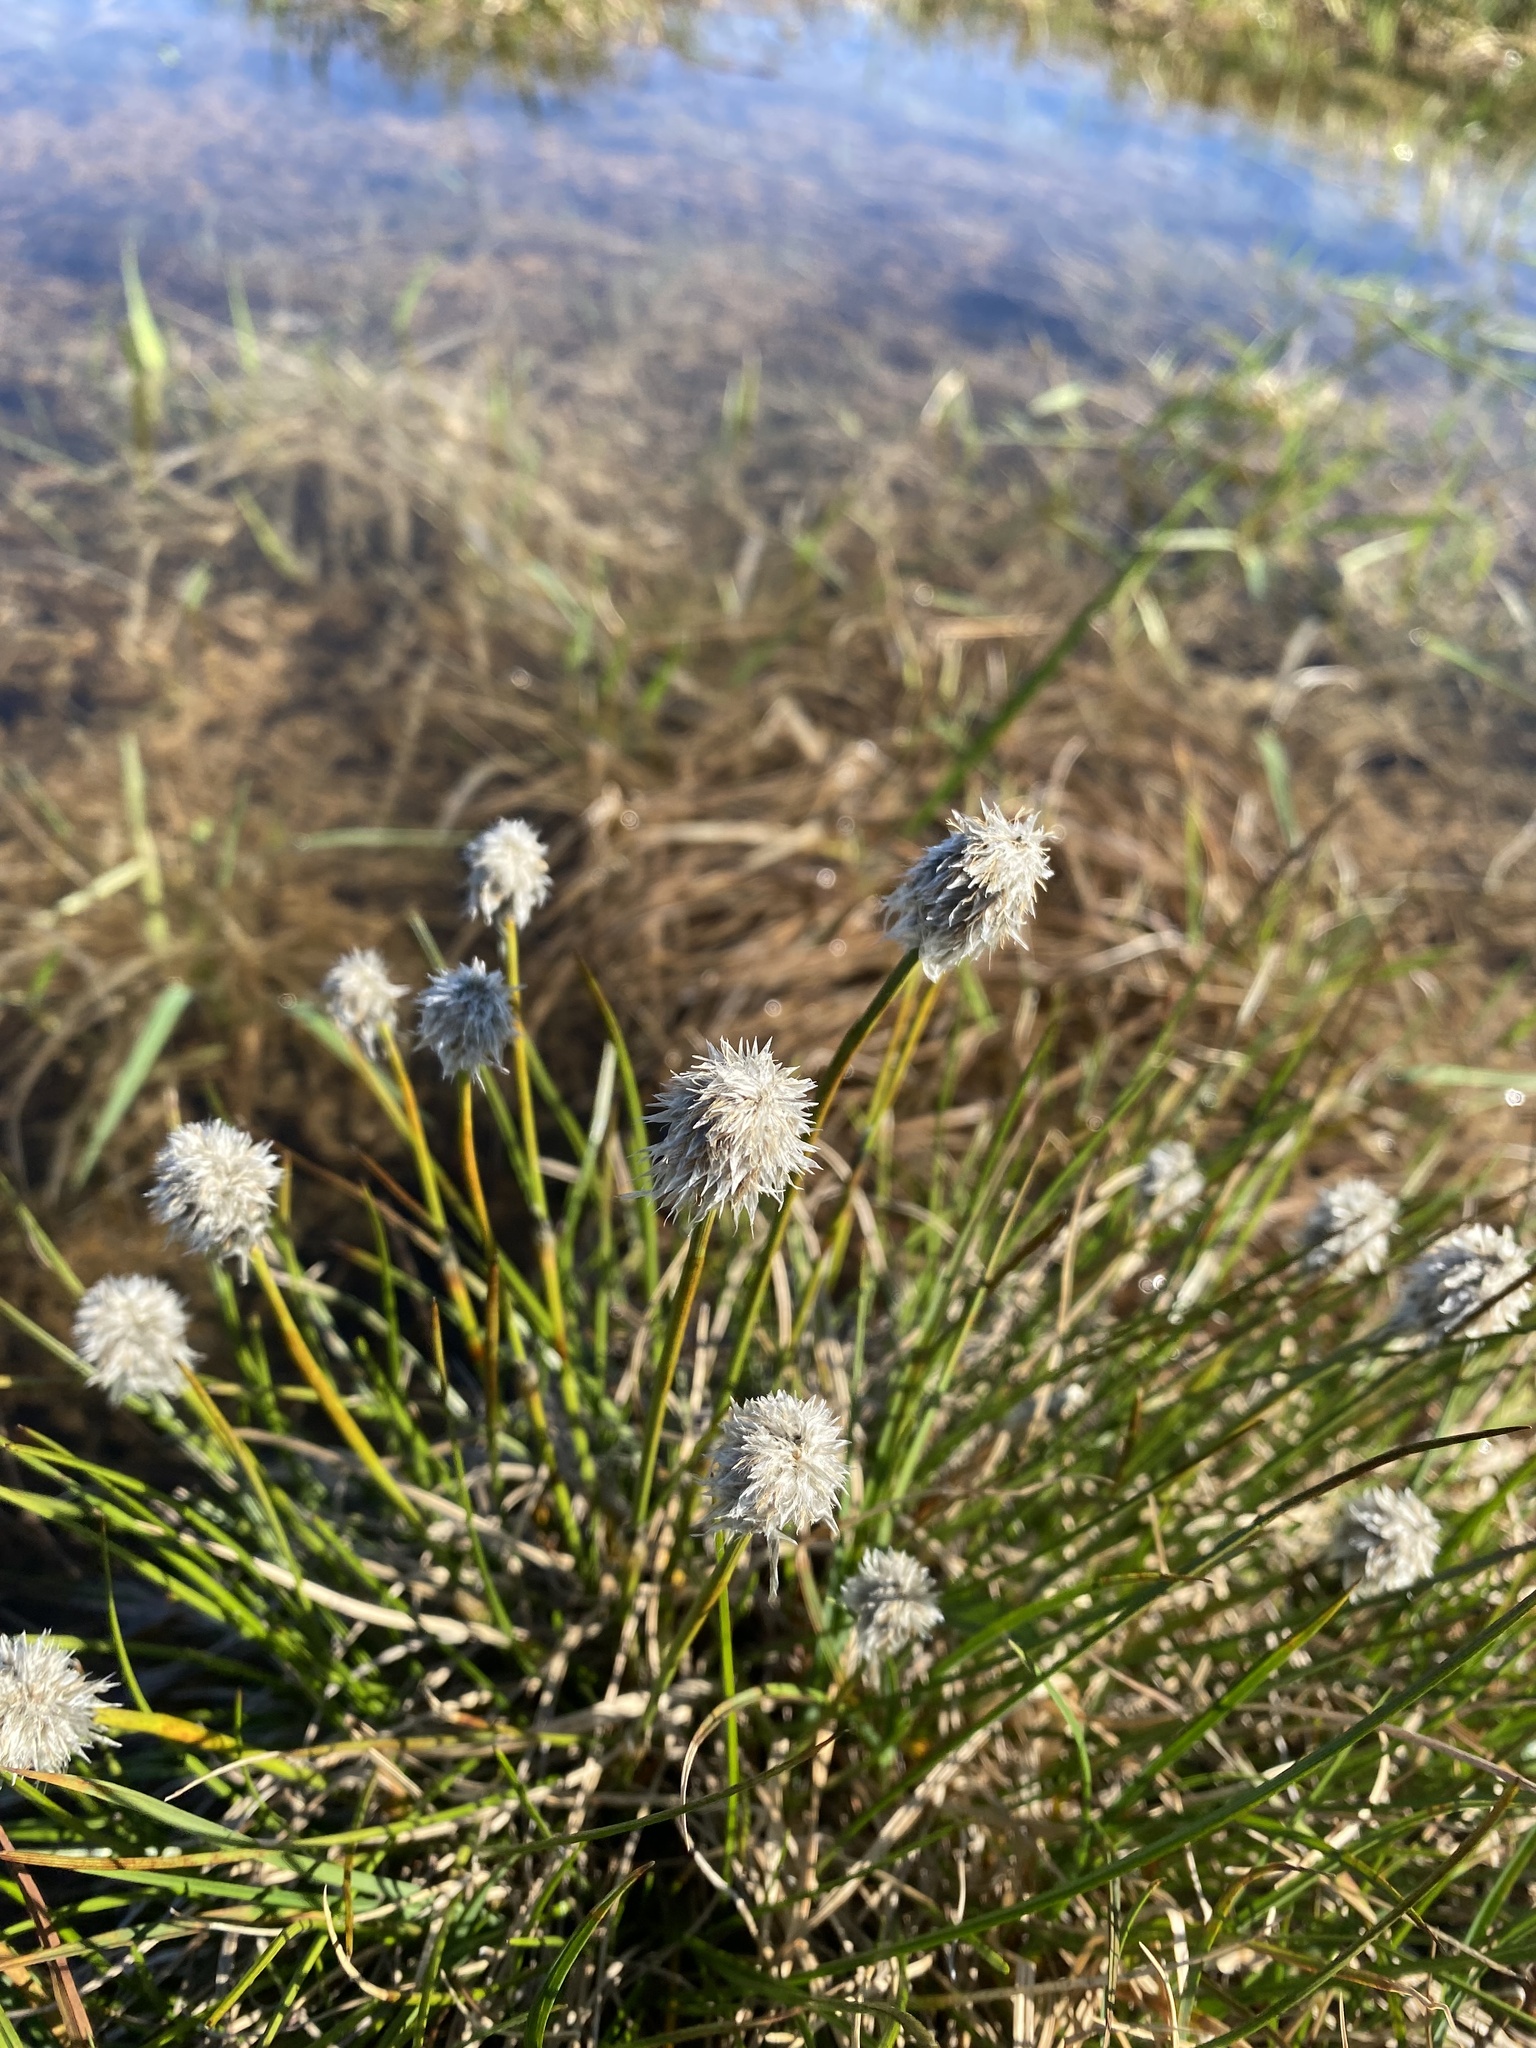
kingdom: Plantae
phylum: Tracheophyta
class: Liliopsida
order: Poales
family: Cyperaceae
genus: Eriophorum
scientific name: Eriophorum vaginatum
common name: Hare's-tail cottongrass
